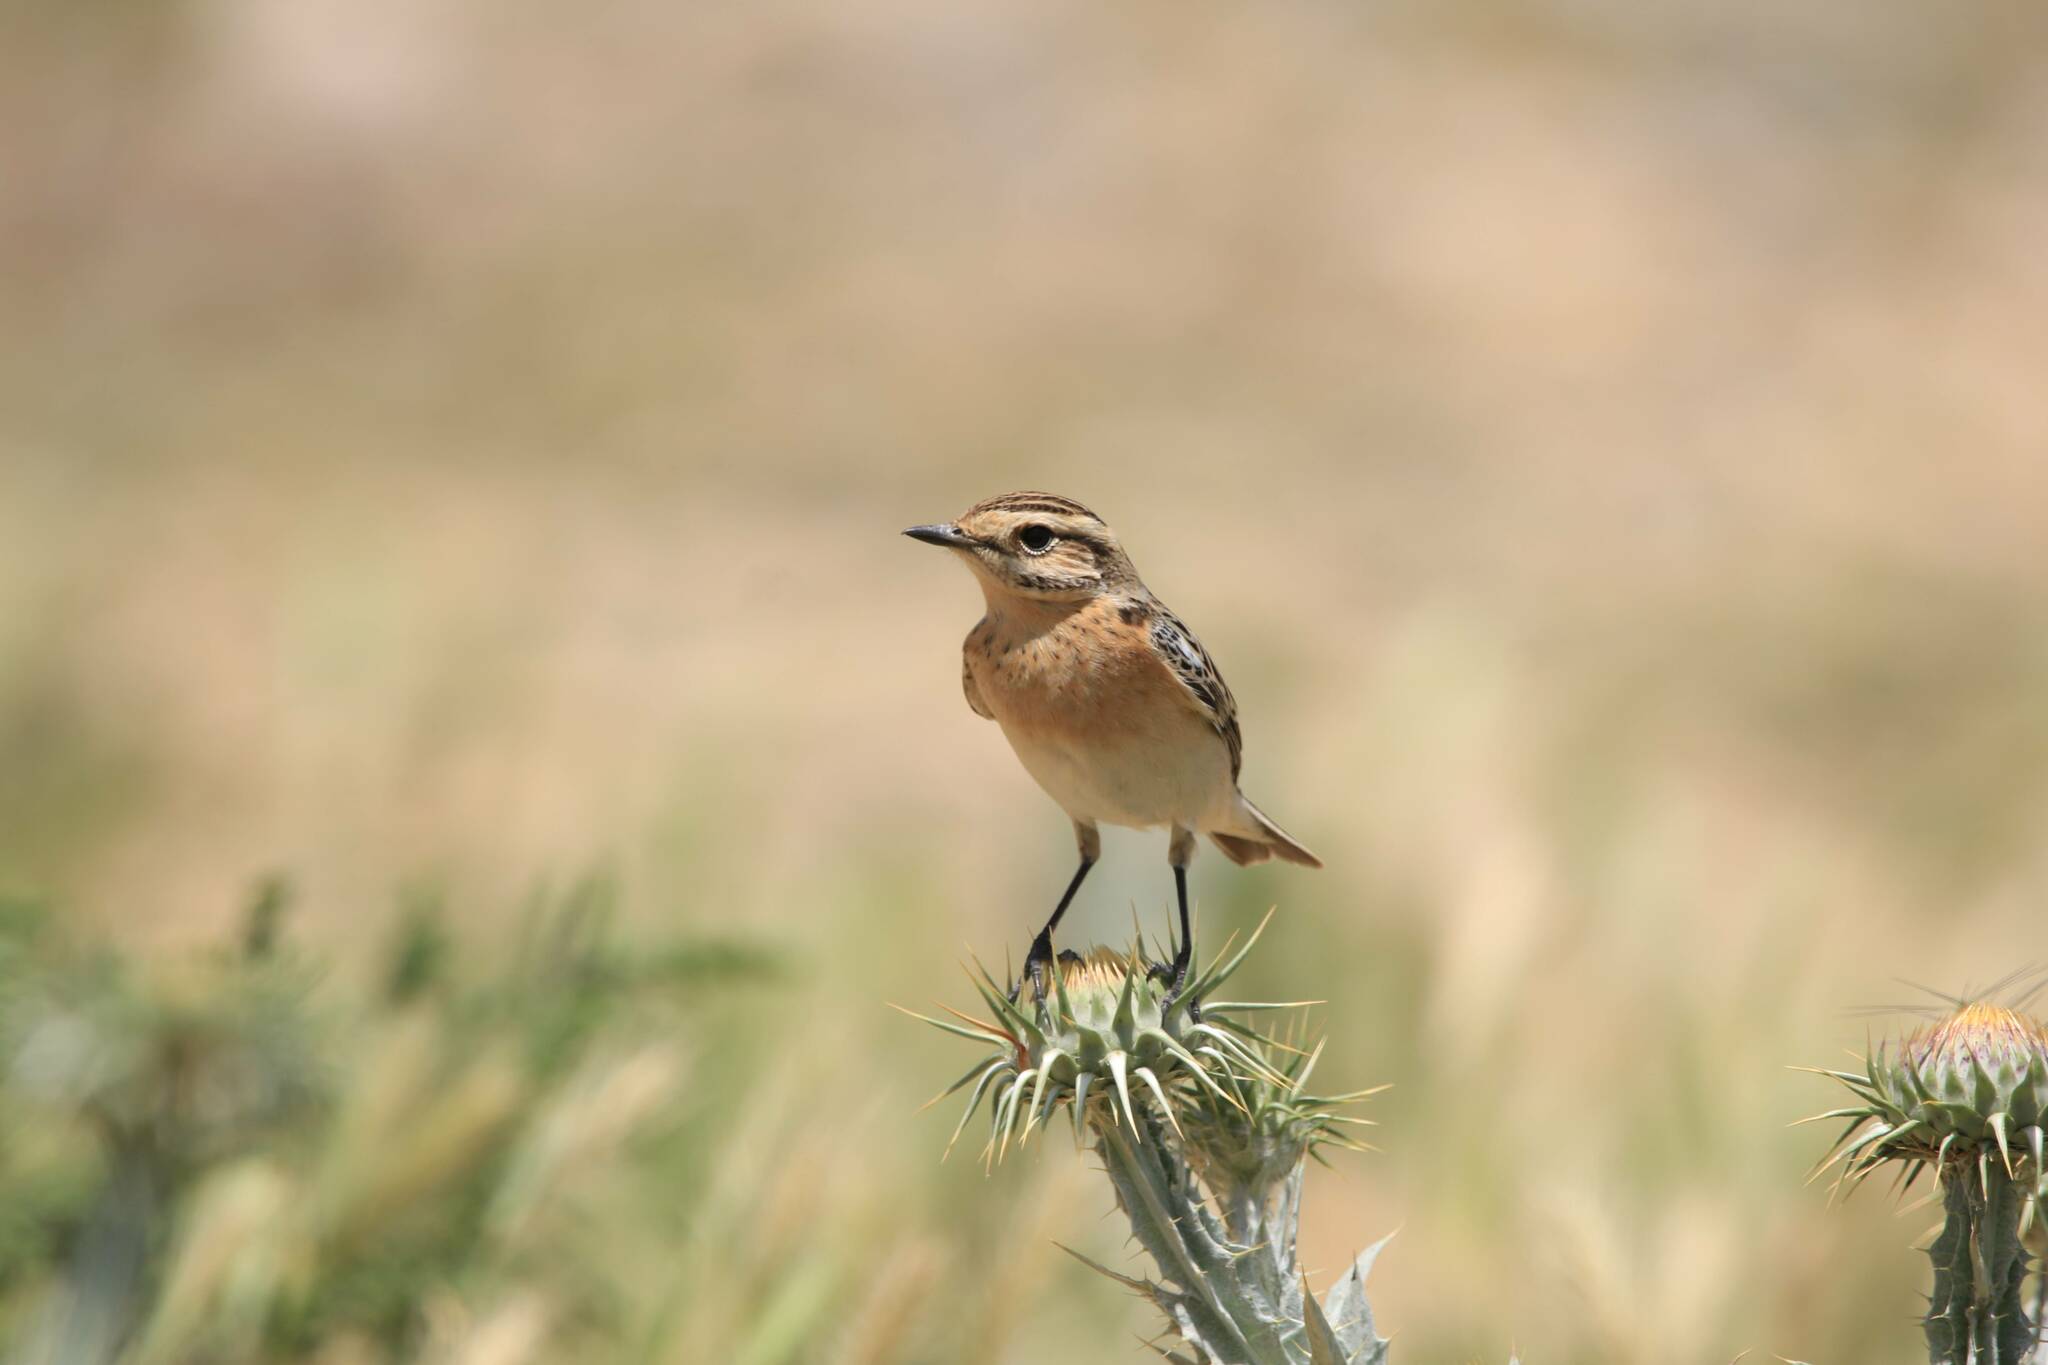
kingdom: Animalia
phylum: Chordata
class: Aves
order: Passeriformes
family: Muscicapidae
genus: Saxicola
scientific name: Saxicola rubetra
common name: Whinchat
